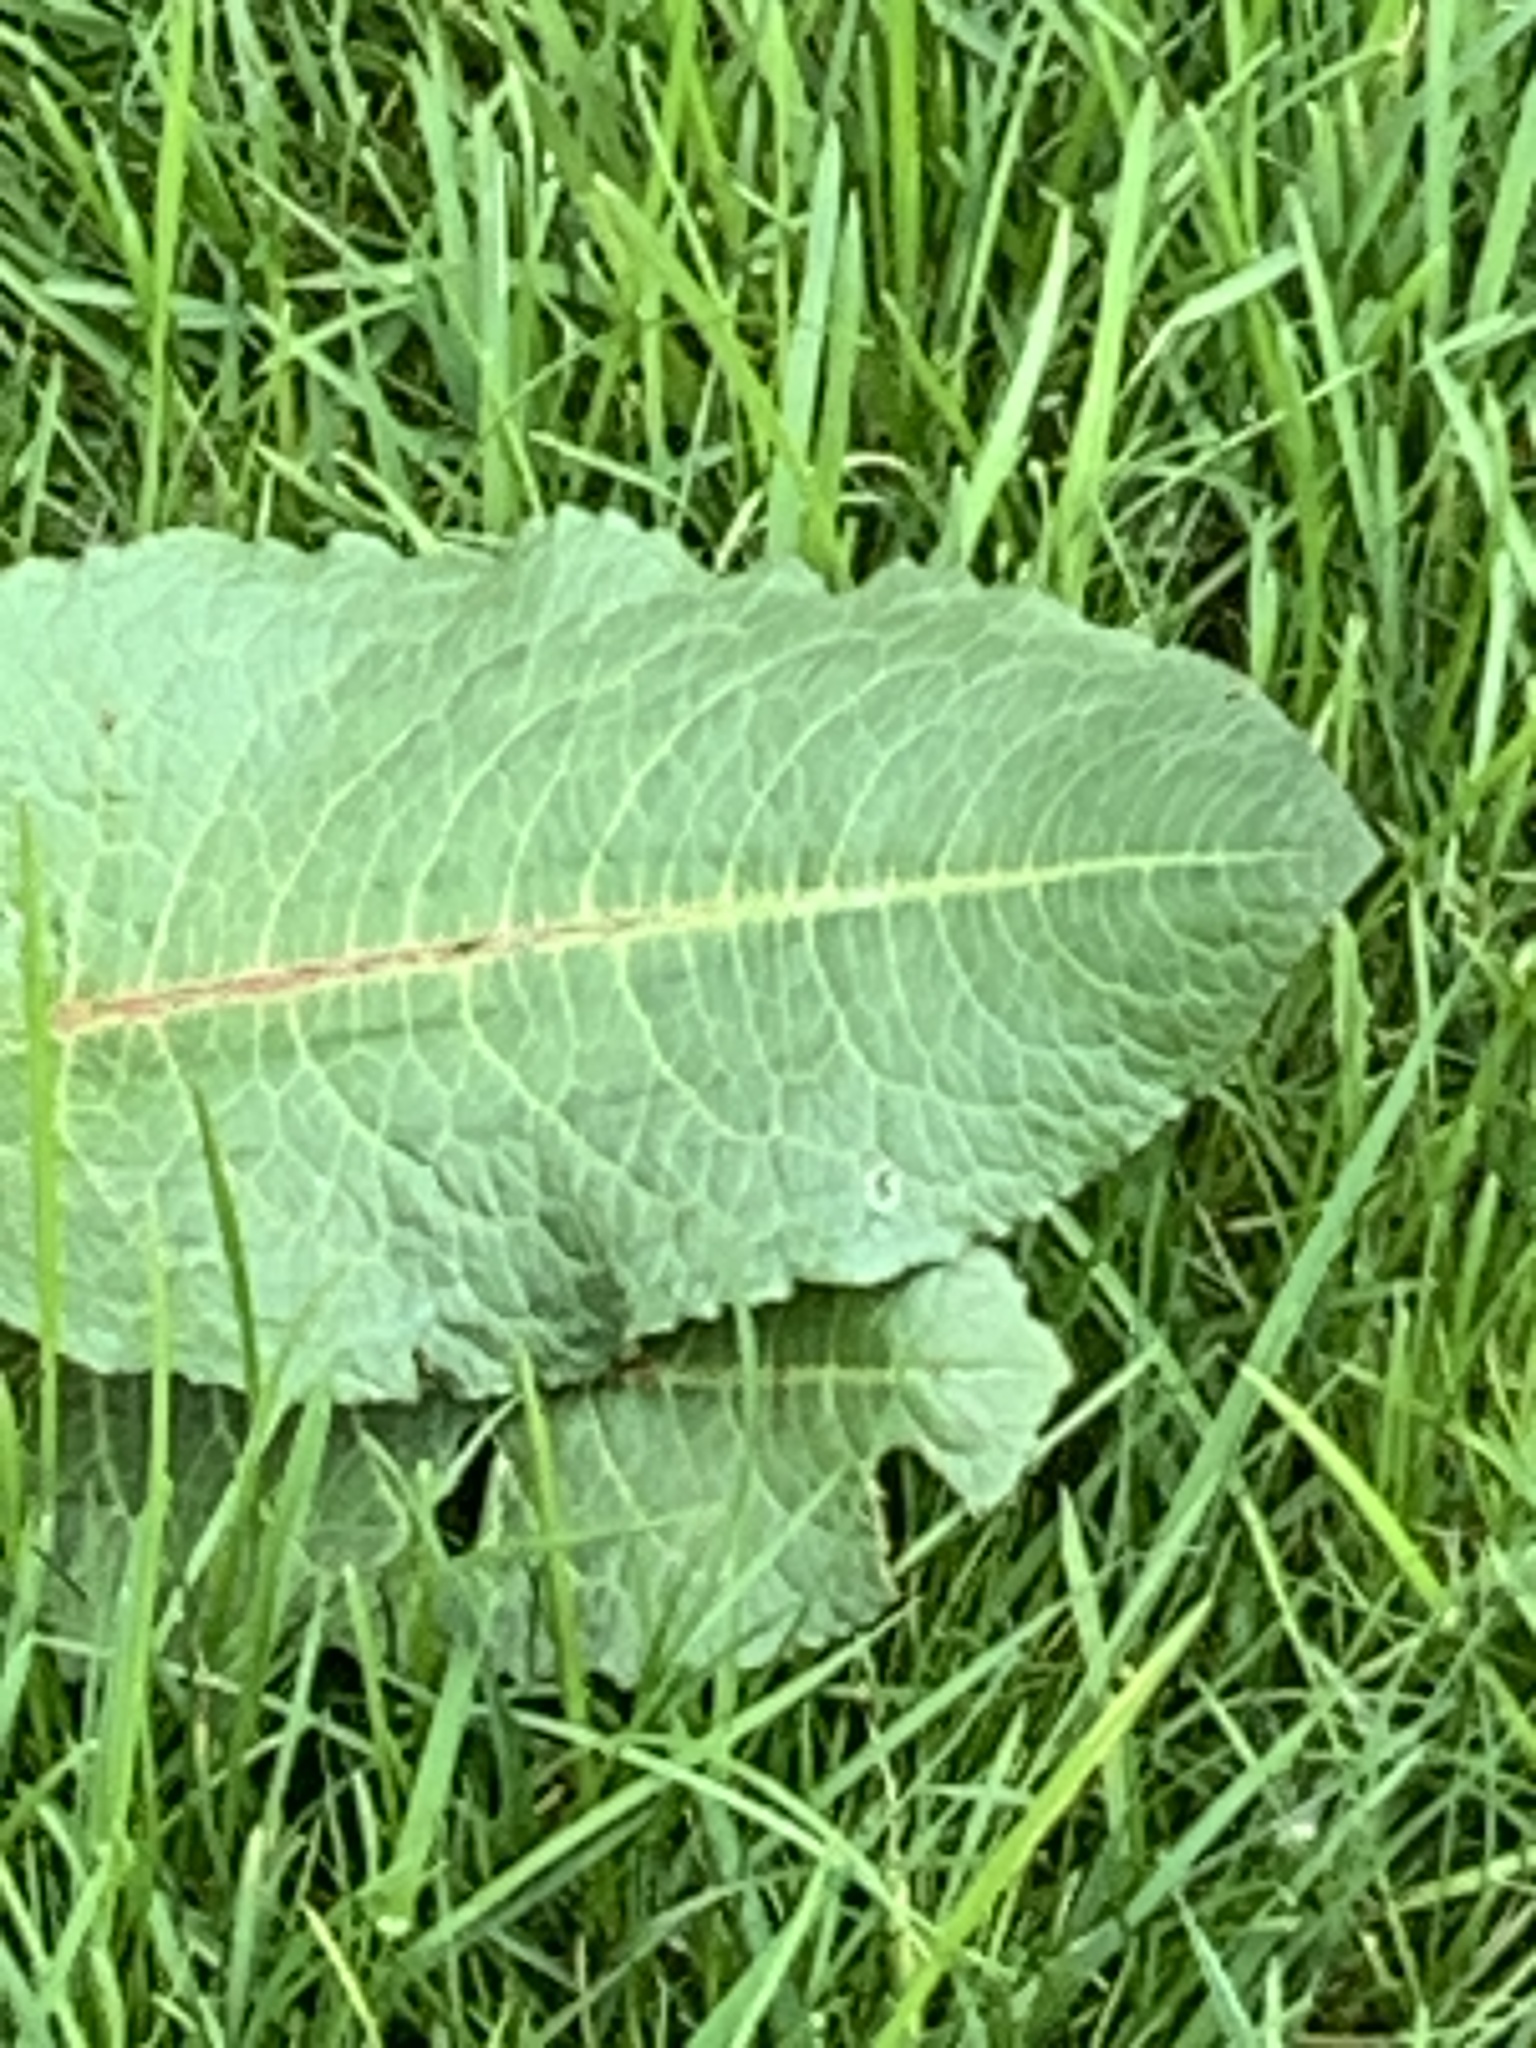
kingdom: Plantae
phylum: Tracheophyta
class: Magnoliopsida
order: Caryophyllales
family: Polygonaceae
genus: Rumex
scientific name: Rumex obtusifolius
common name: Bitter dock
